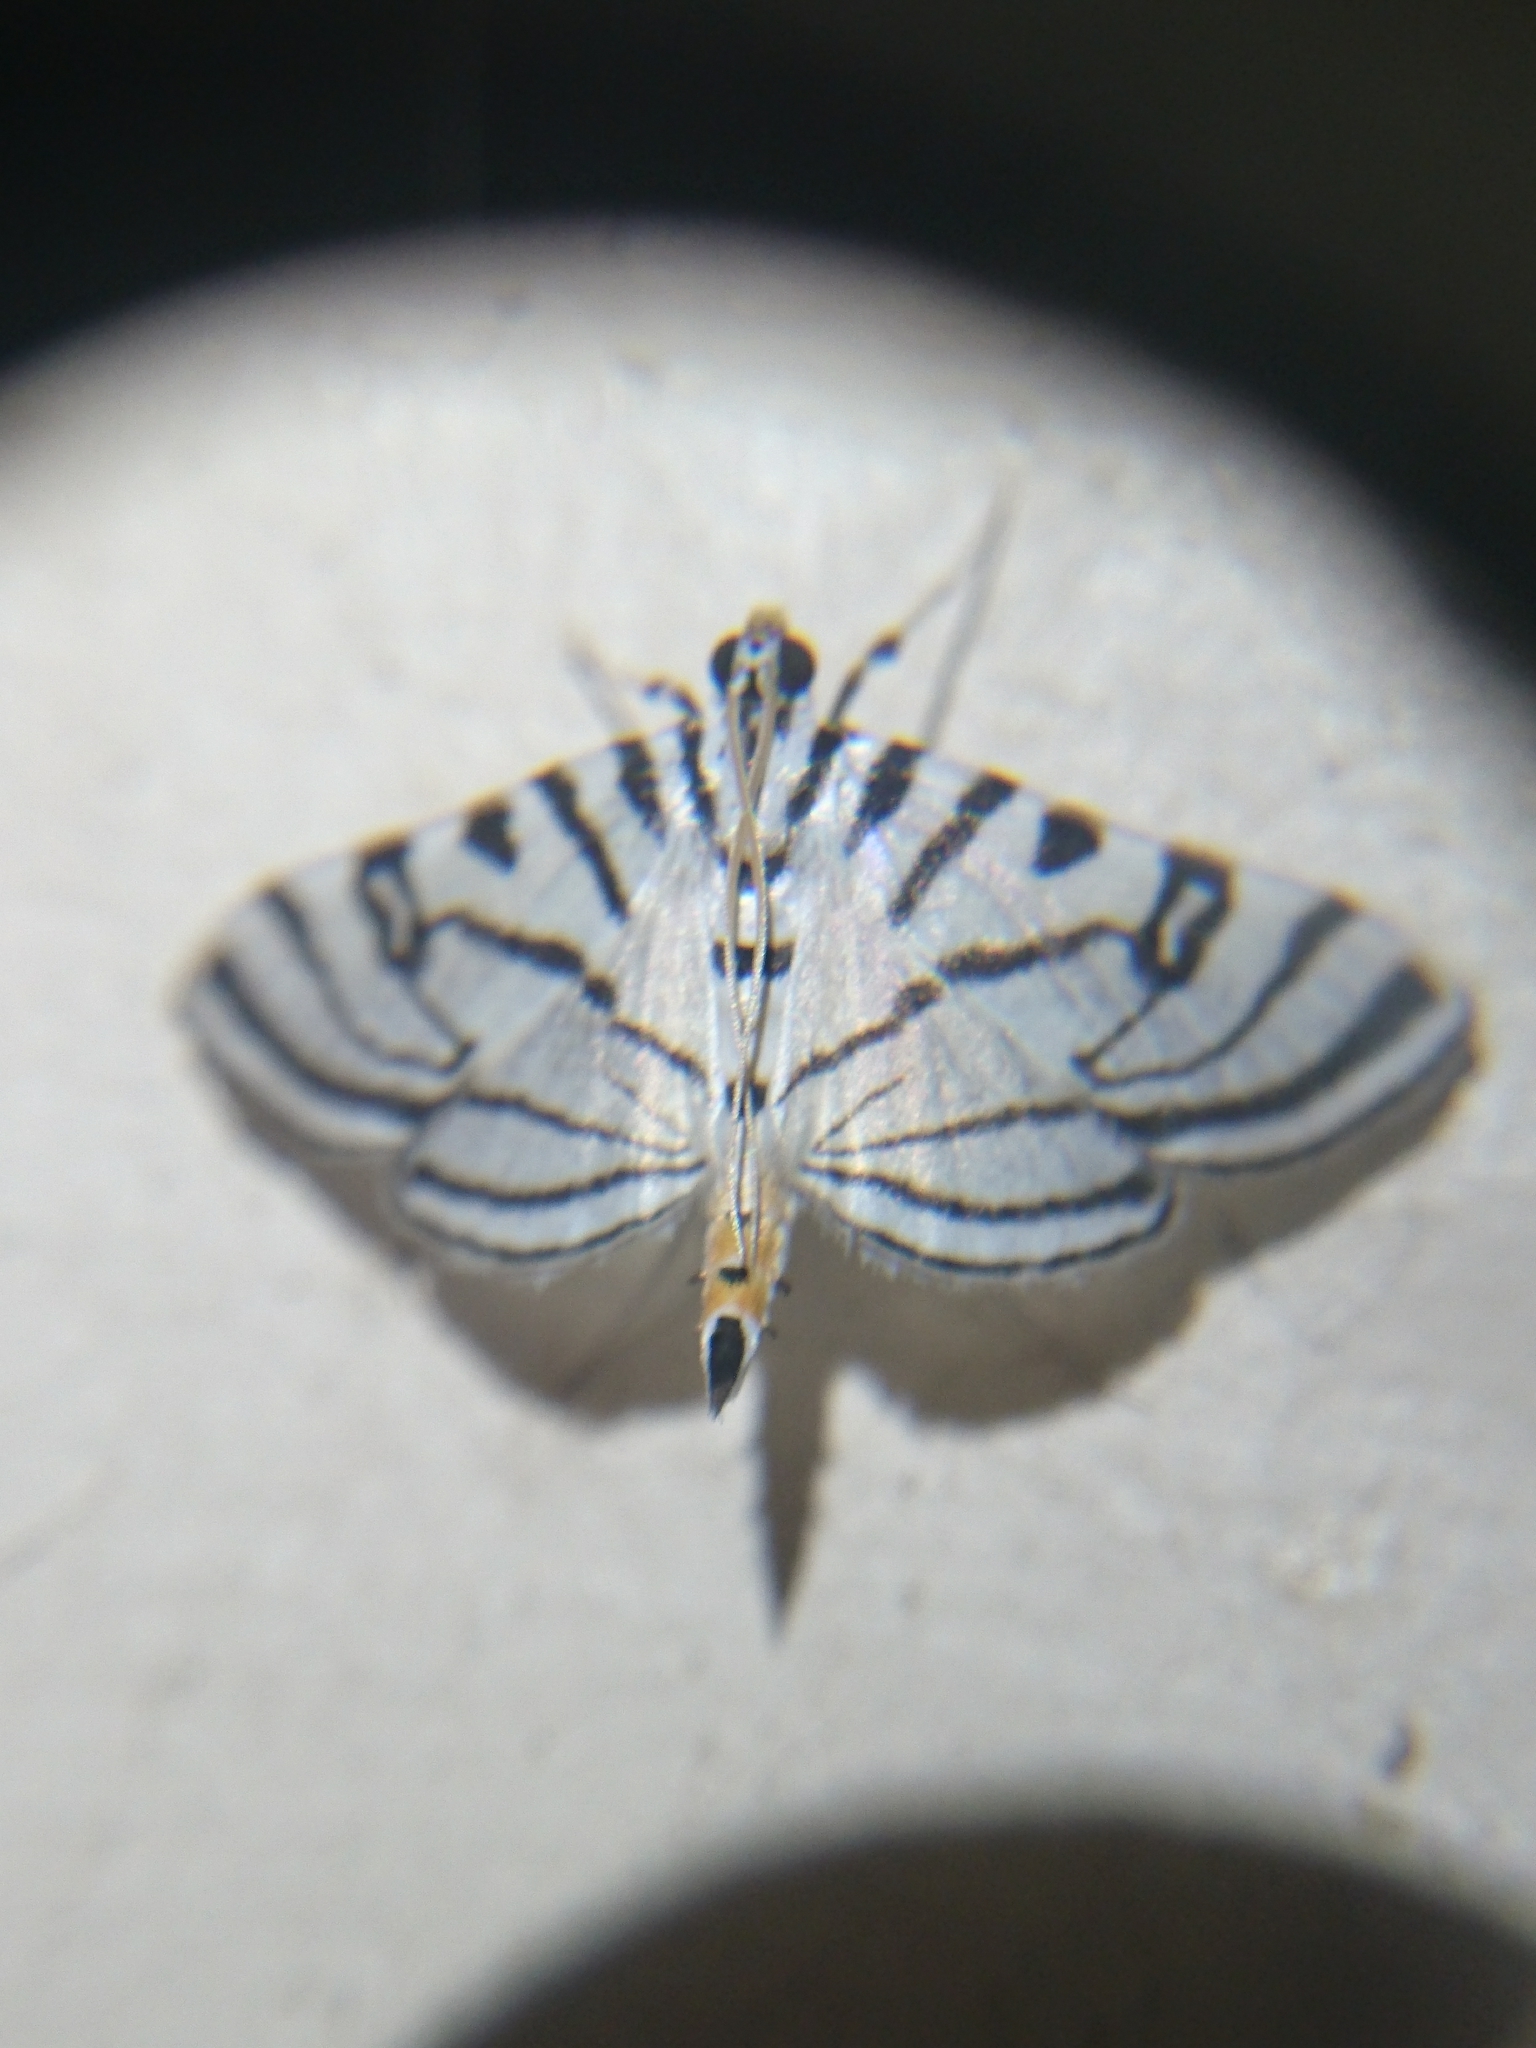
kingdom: Animalia
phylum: Arthropoda
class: Insecta
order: Lepidoptera
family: Crambidae
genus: Conchylodes
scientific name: Conchylodes ovulalis
